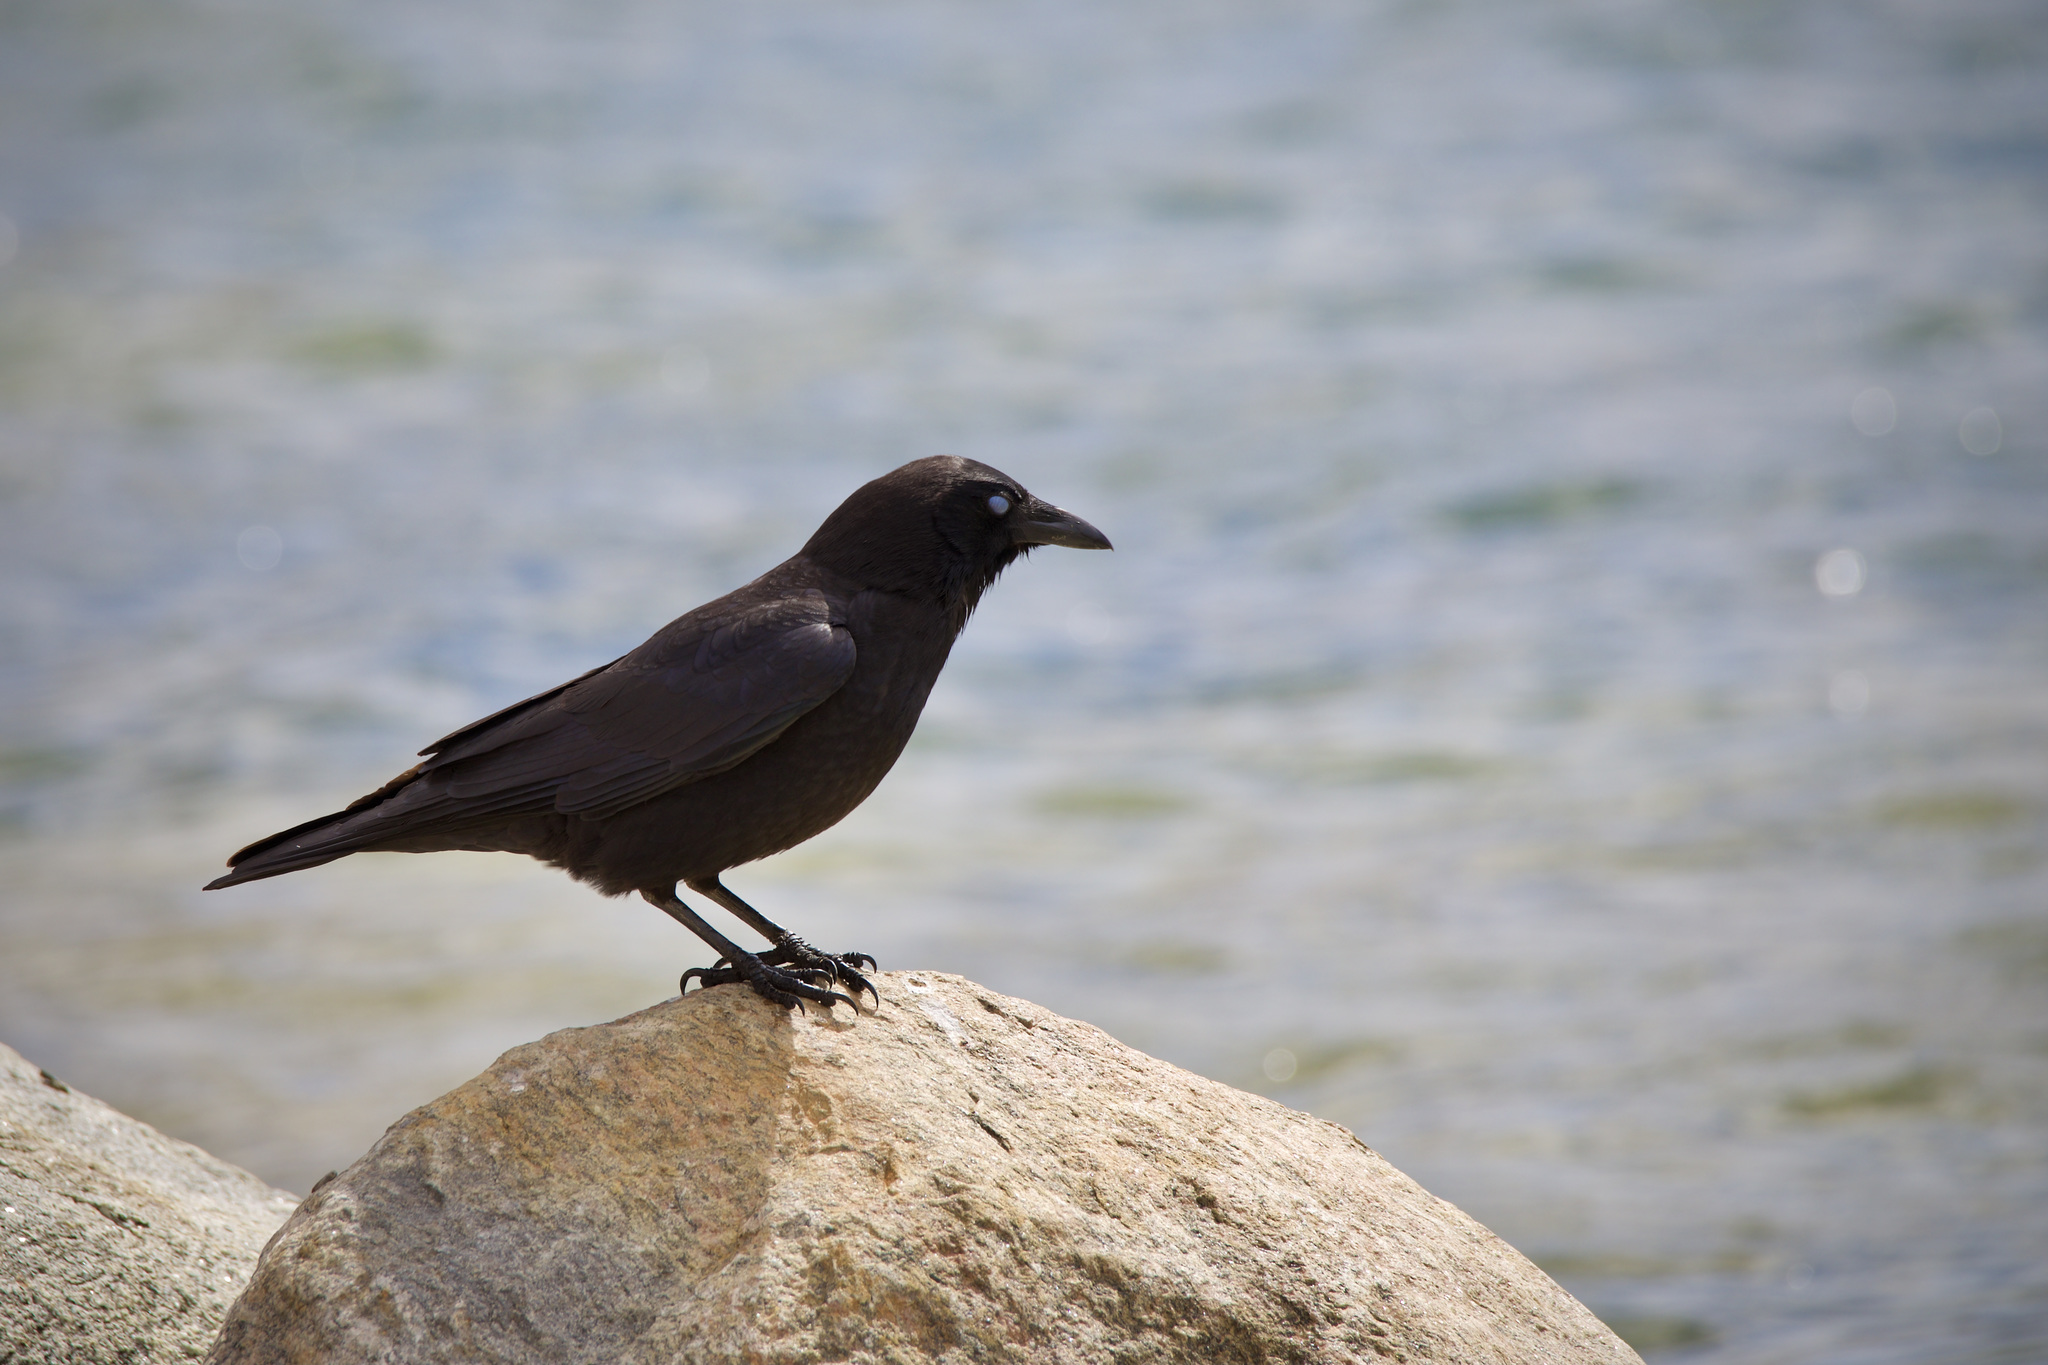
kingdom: Animalia
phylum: Chordata
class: Aves
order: Passeriformes
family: Corvidae
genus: Corvus
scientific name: Corvus brachyrhynchos
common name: American crow
